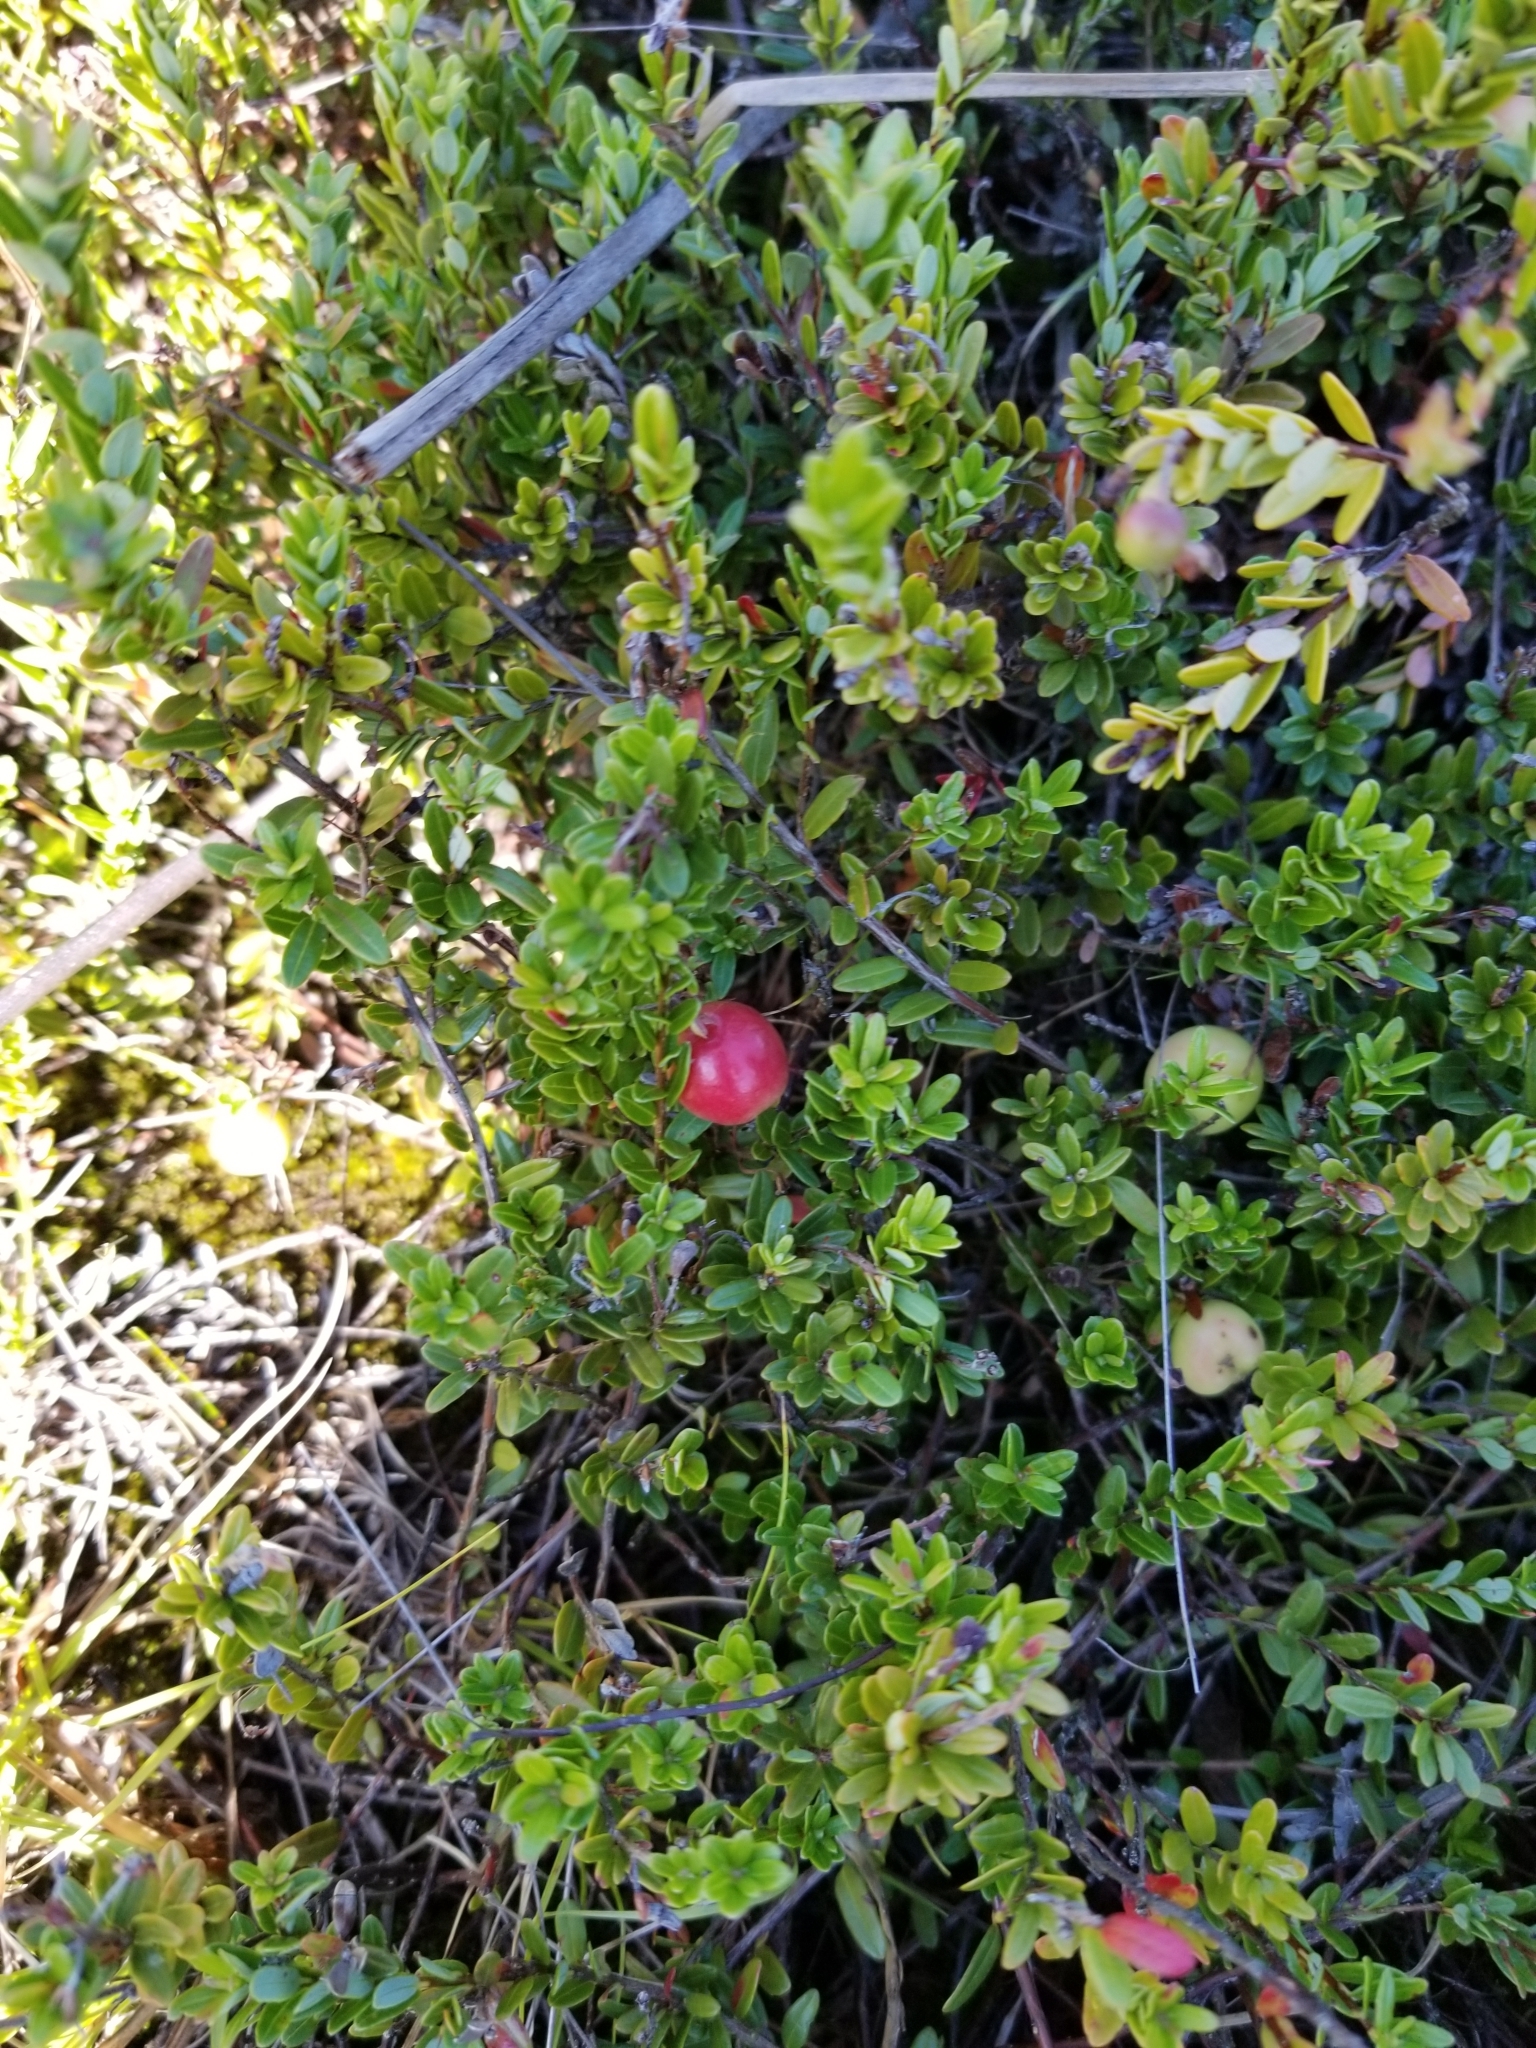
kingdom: Plantae
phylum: Tracheophyta
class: Magnoliopsida
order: Ericales
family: Ericaceae
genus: Vaccinium
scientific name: Vaccinium macrocarpon
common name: American cranberry
